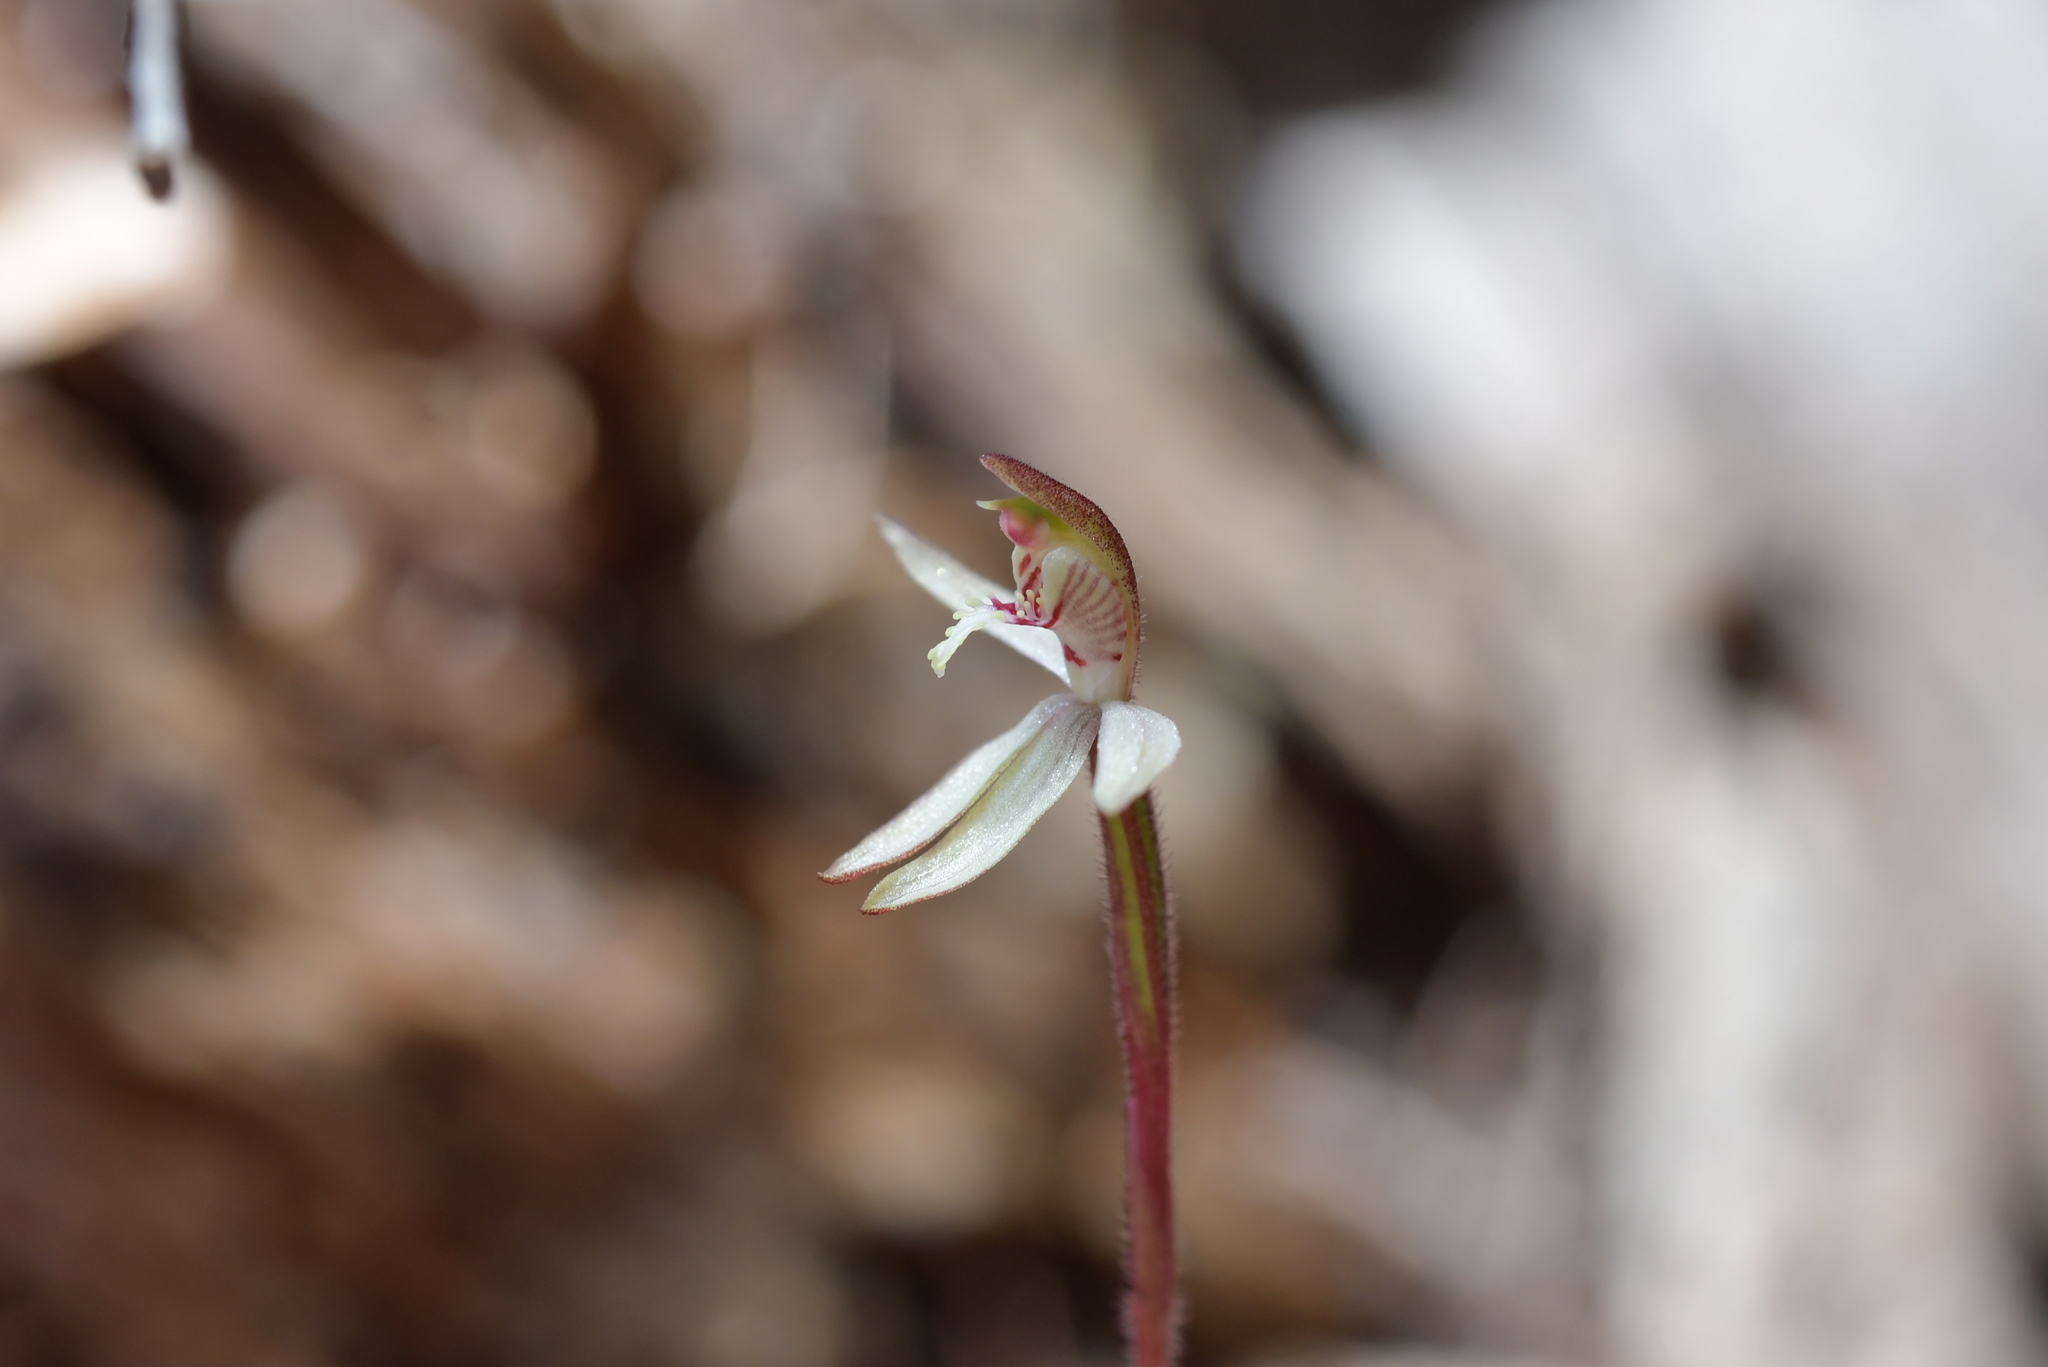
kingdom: Plantae
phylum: Tracheophyta
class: Liliopsida
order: Asparagales
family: Orchidaceae
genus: Caladenia
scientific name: Caladenia chlorostyla
